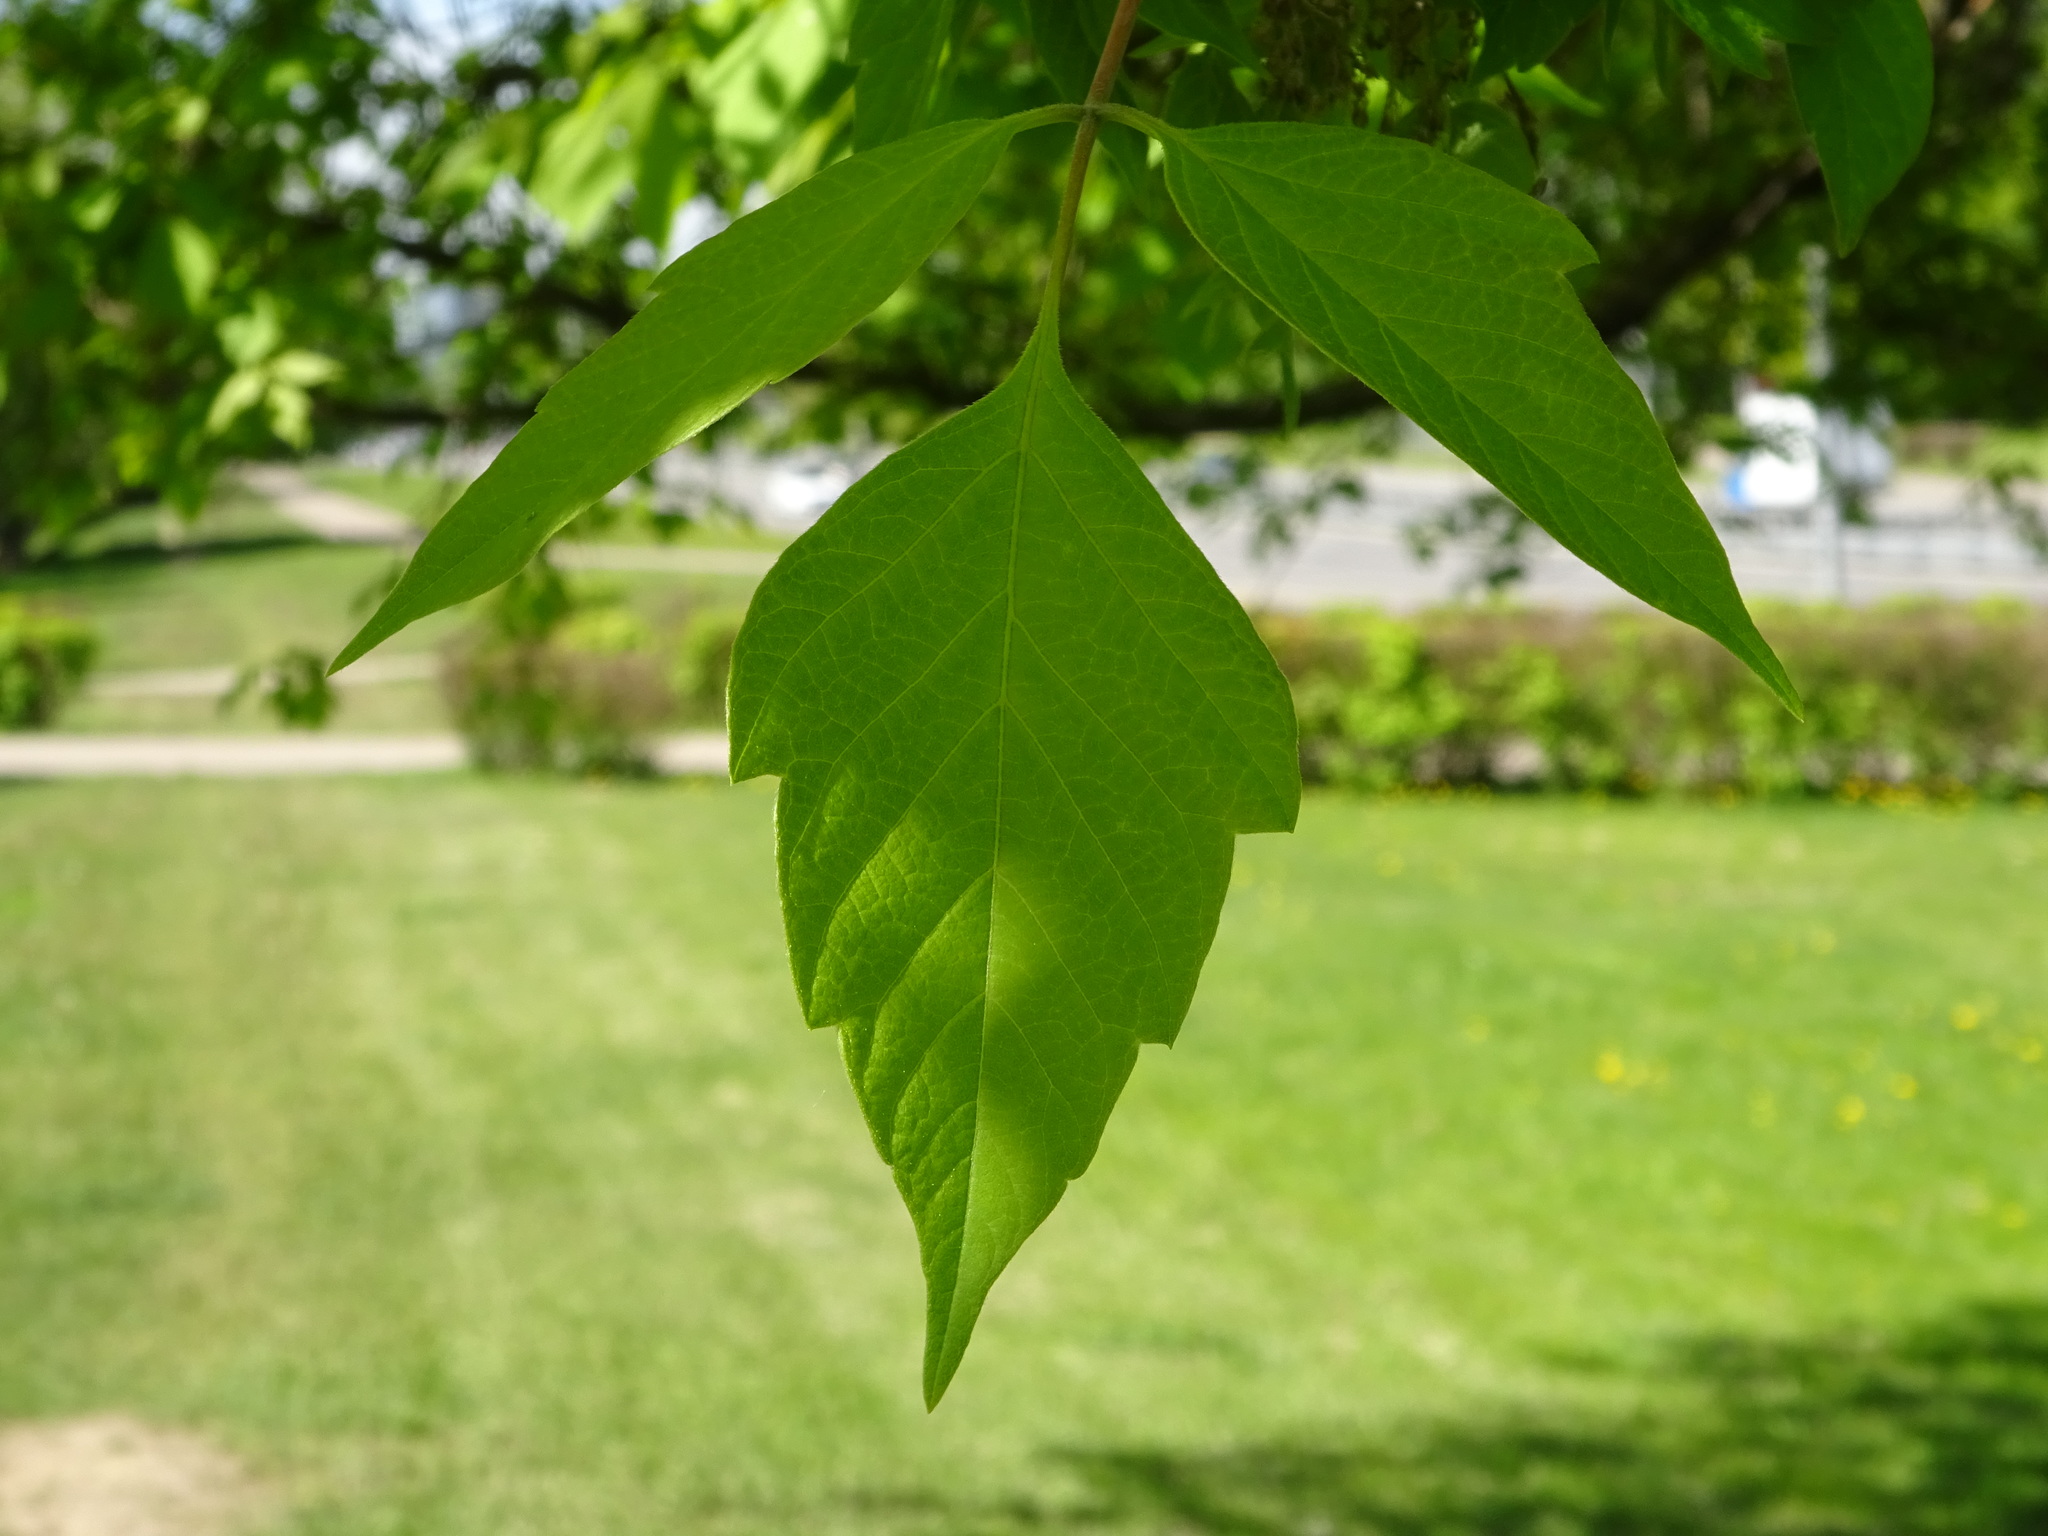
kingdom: Plantae
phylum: Tracheophyta
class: Magnoliopsida
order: Sapindales
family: Sapindaceae
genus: Acer
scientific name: Acer negundo
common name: Ashleaf maple
